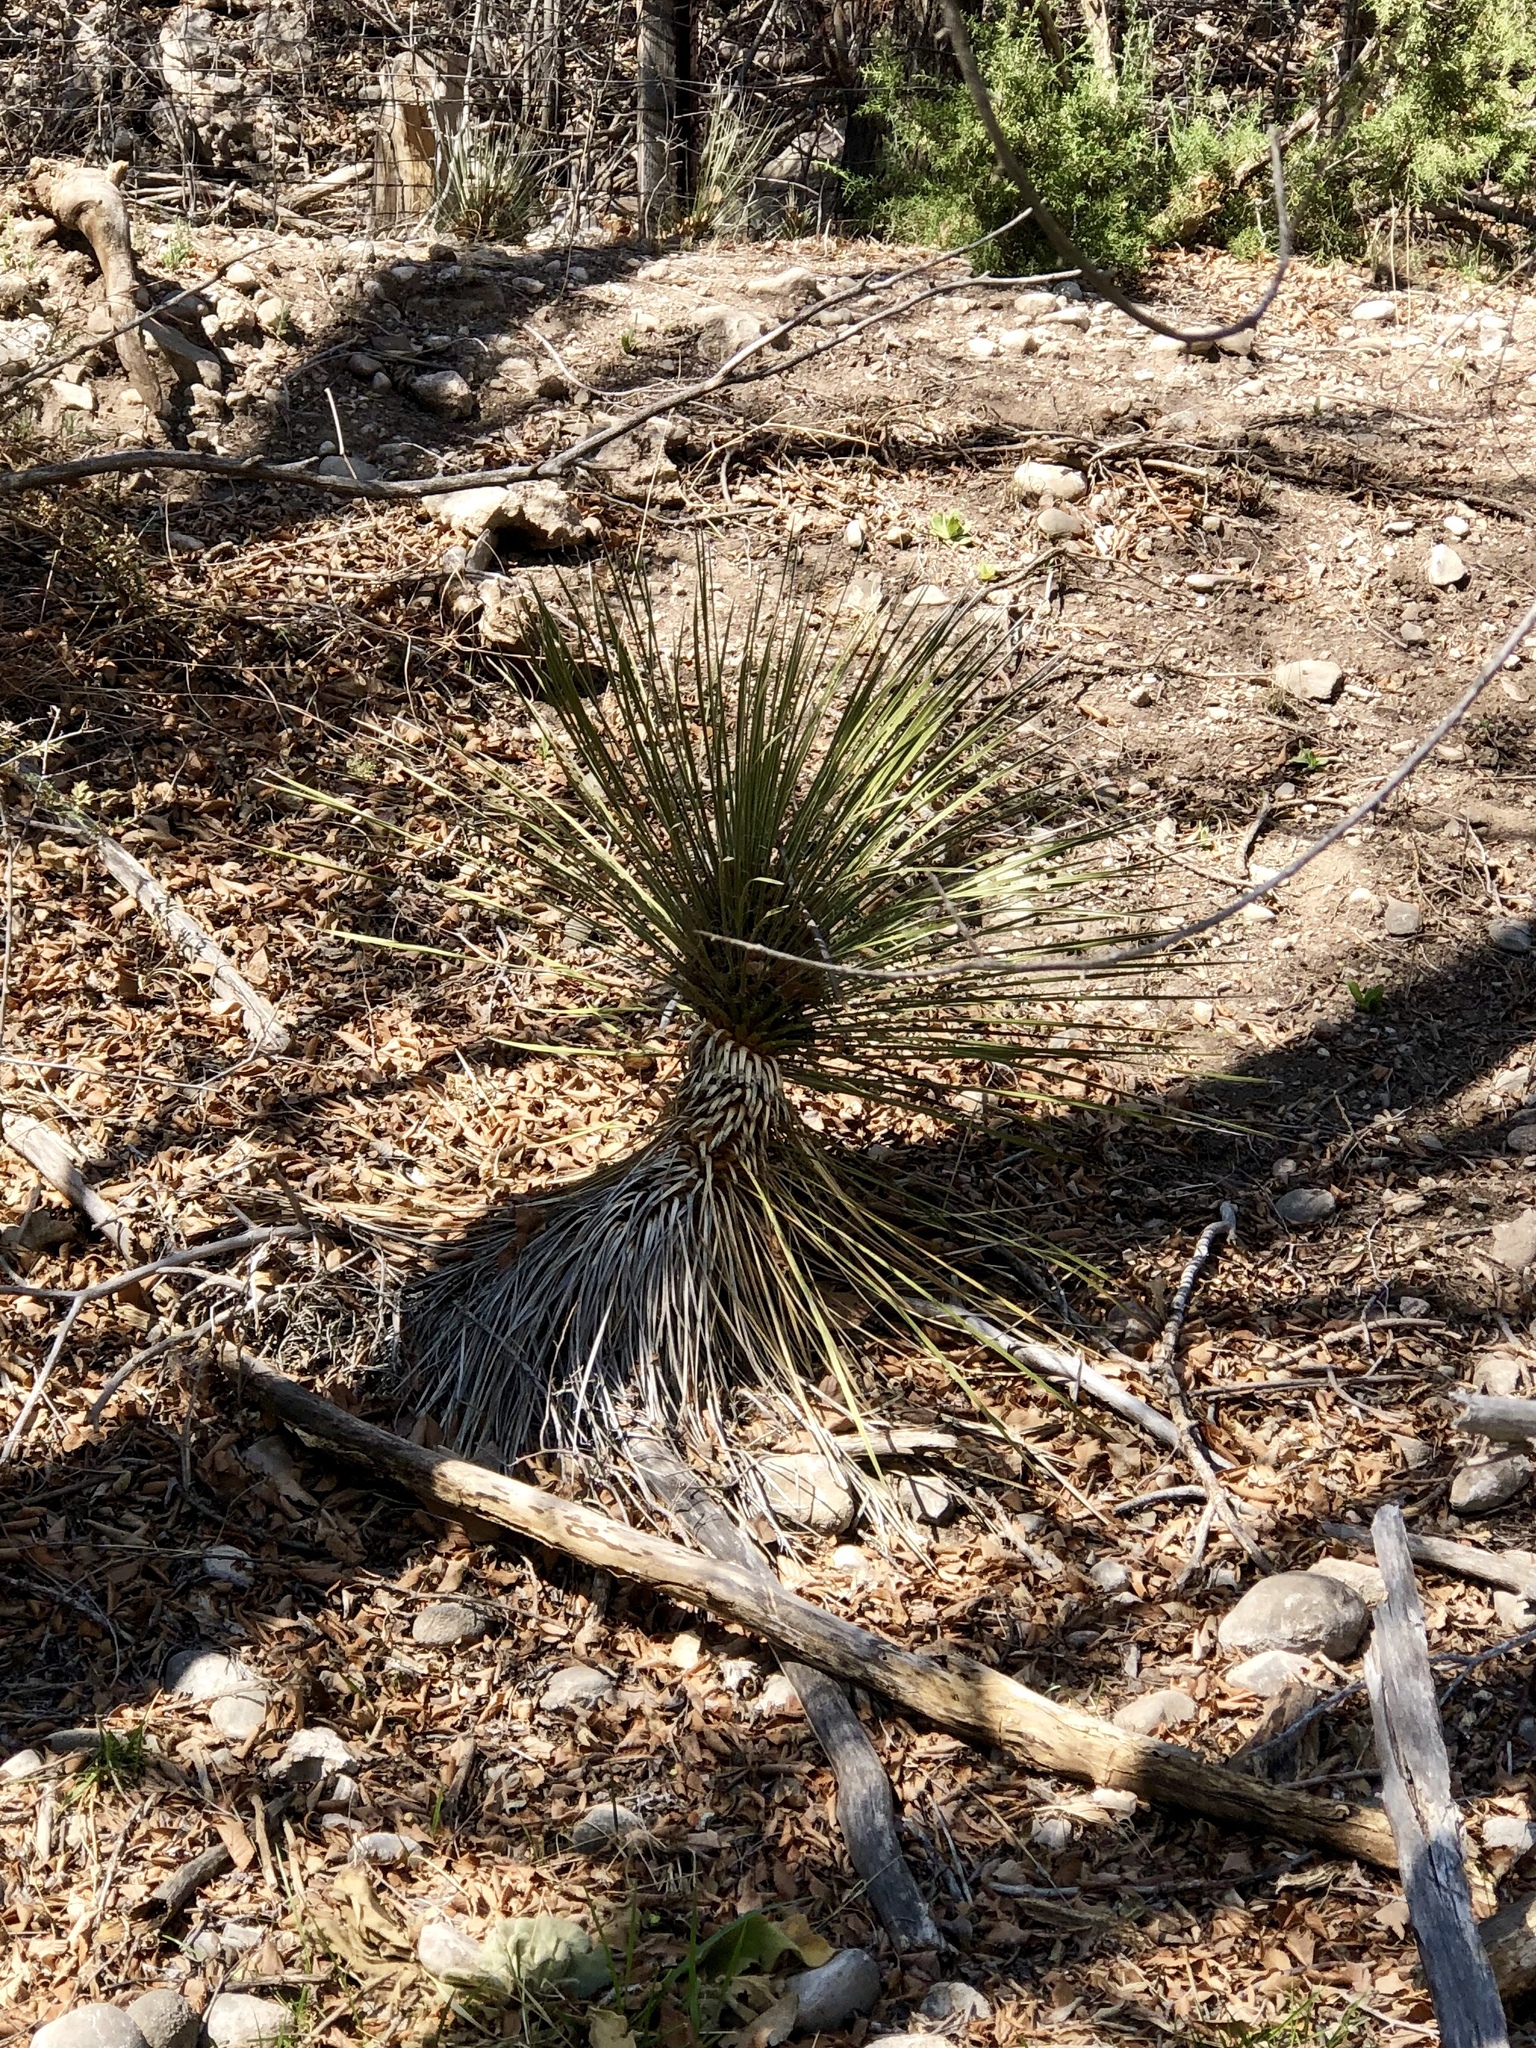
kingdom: Plantae
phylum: Tracheophyta
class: Liliopsida
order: Asparagales
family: Asparagaceae
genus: Yucca
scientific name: Yucca elata
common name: Palmella
